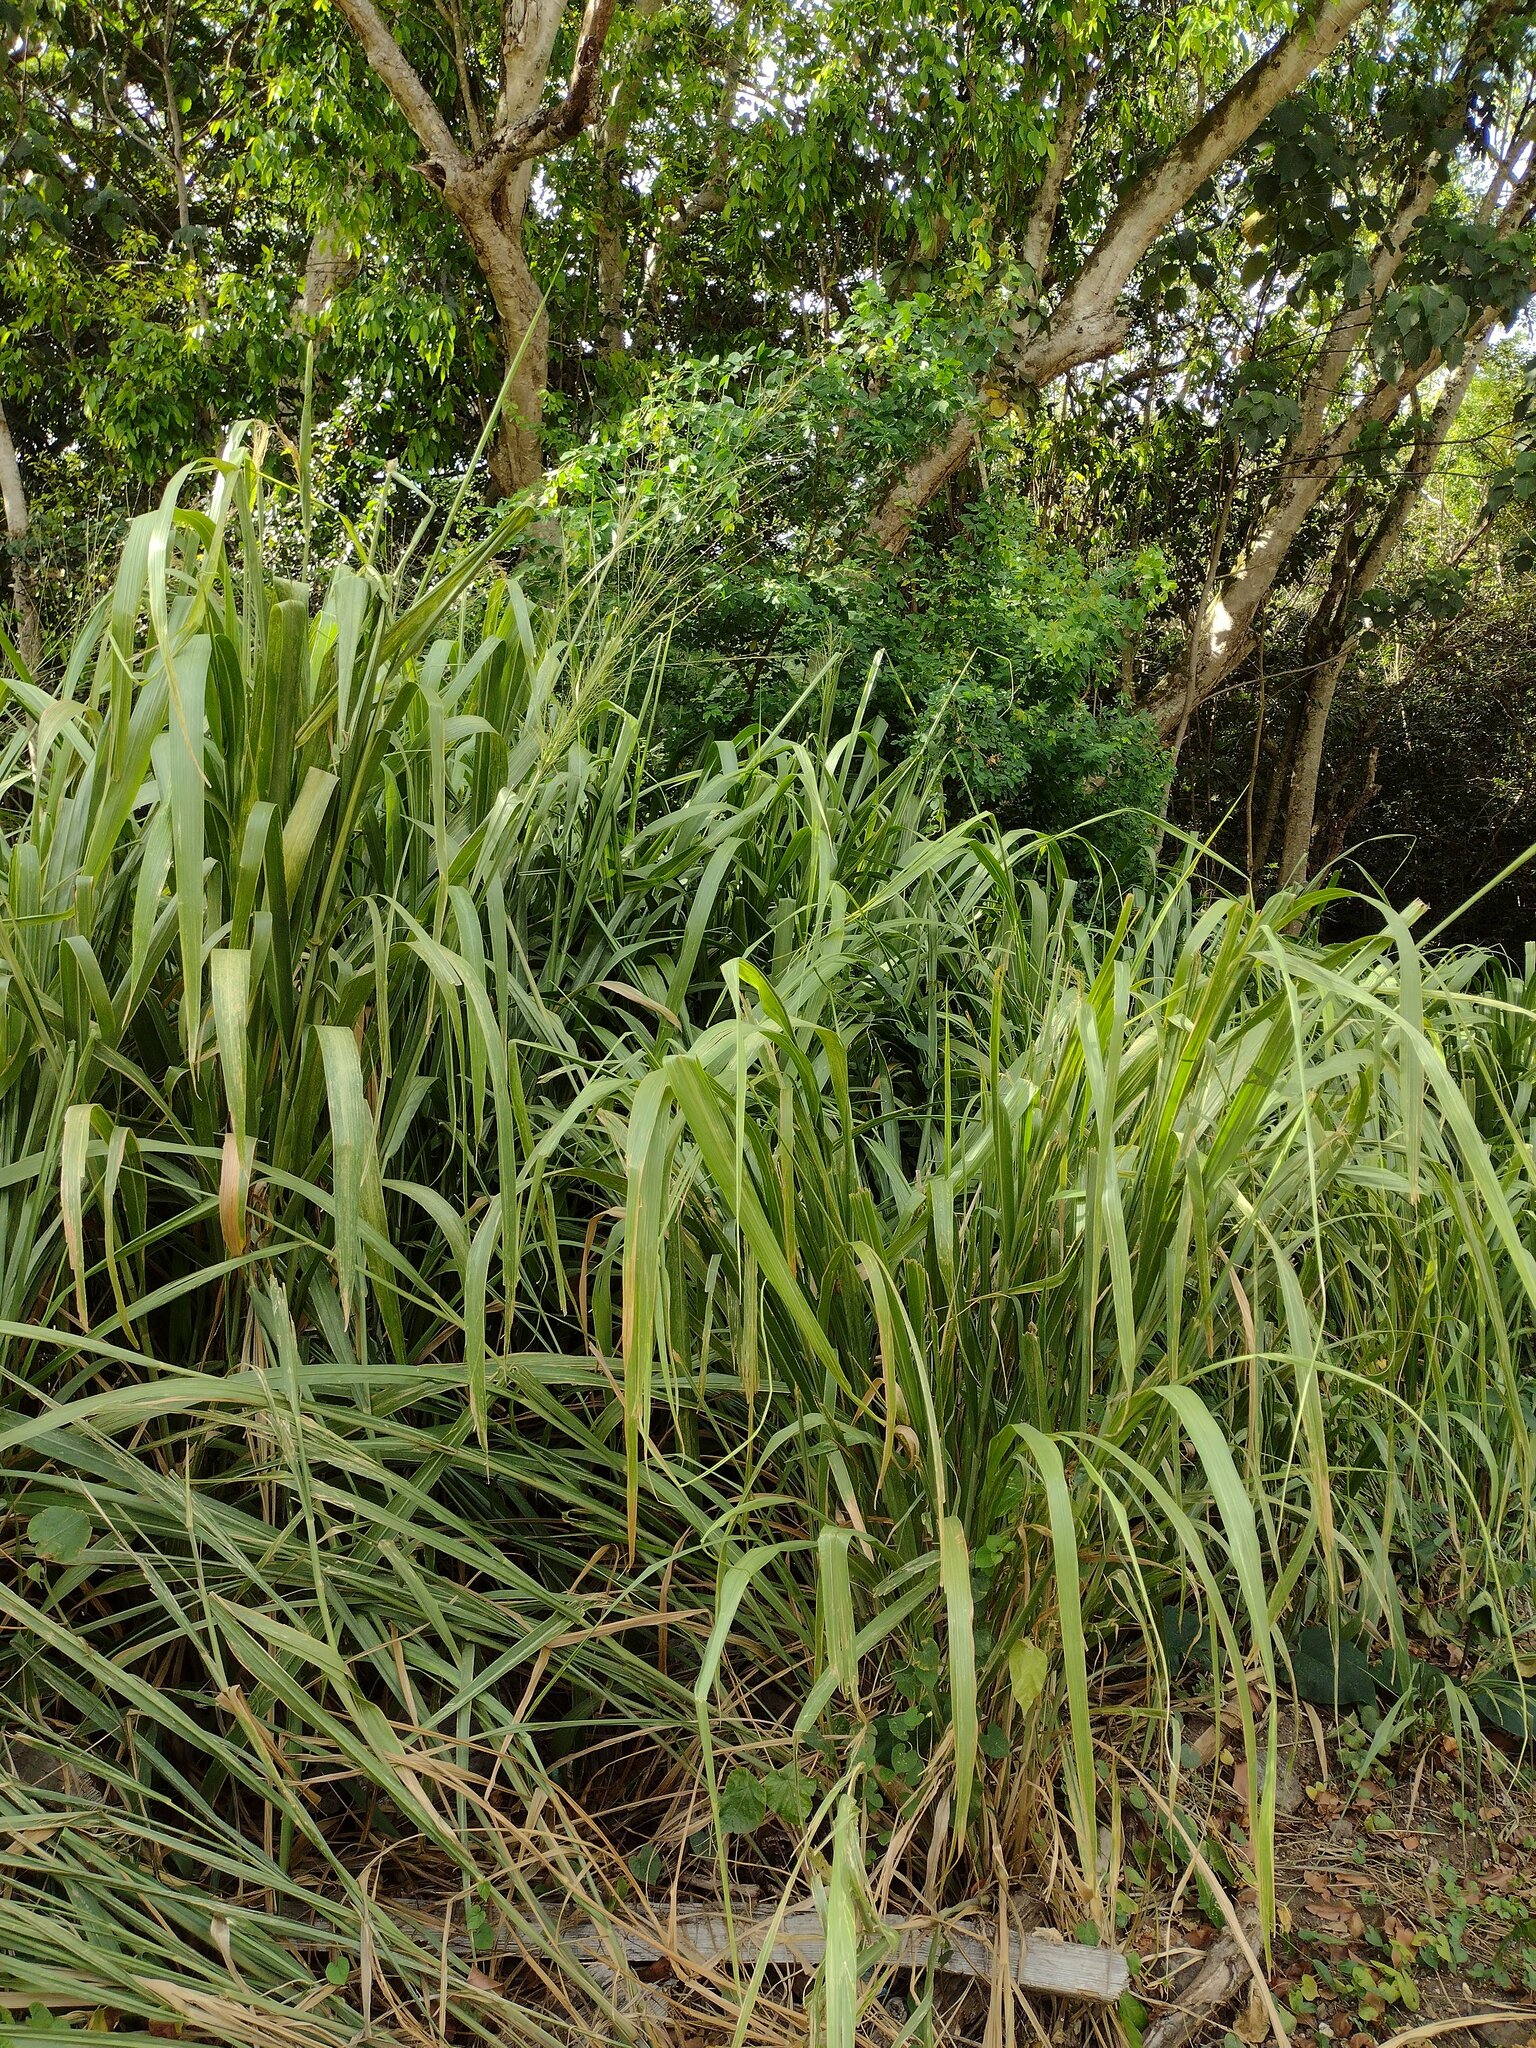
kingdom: Plantae
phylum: Tracheophyta
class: Liliopsida
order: Poales
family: Poaceae
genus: Megathyrsus
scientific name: Megathyrsus maximus
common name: Guineagrass
